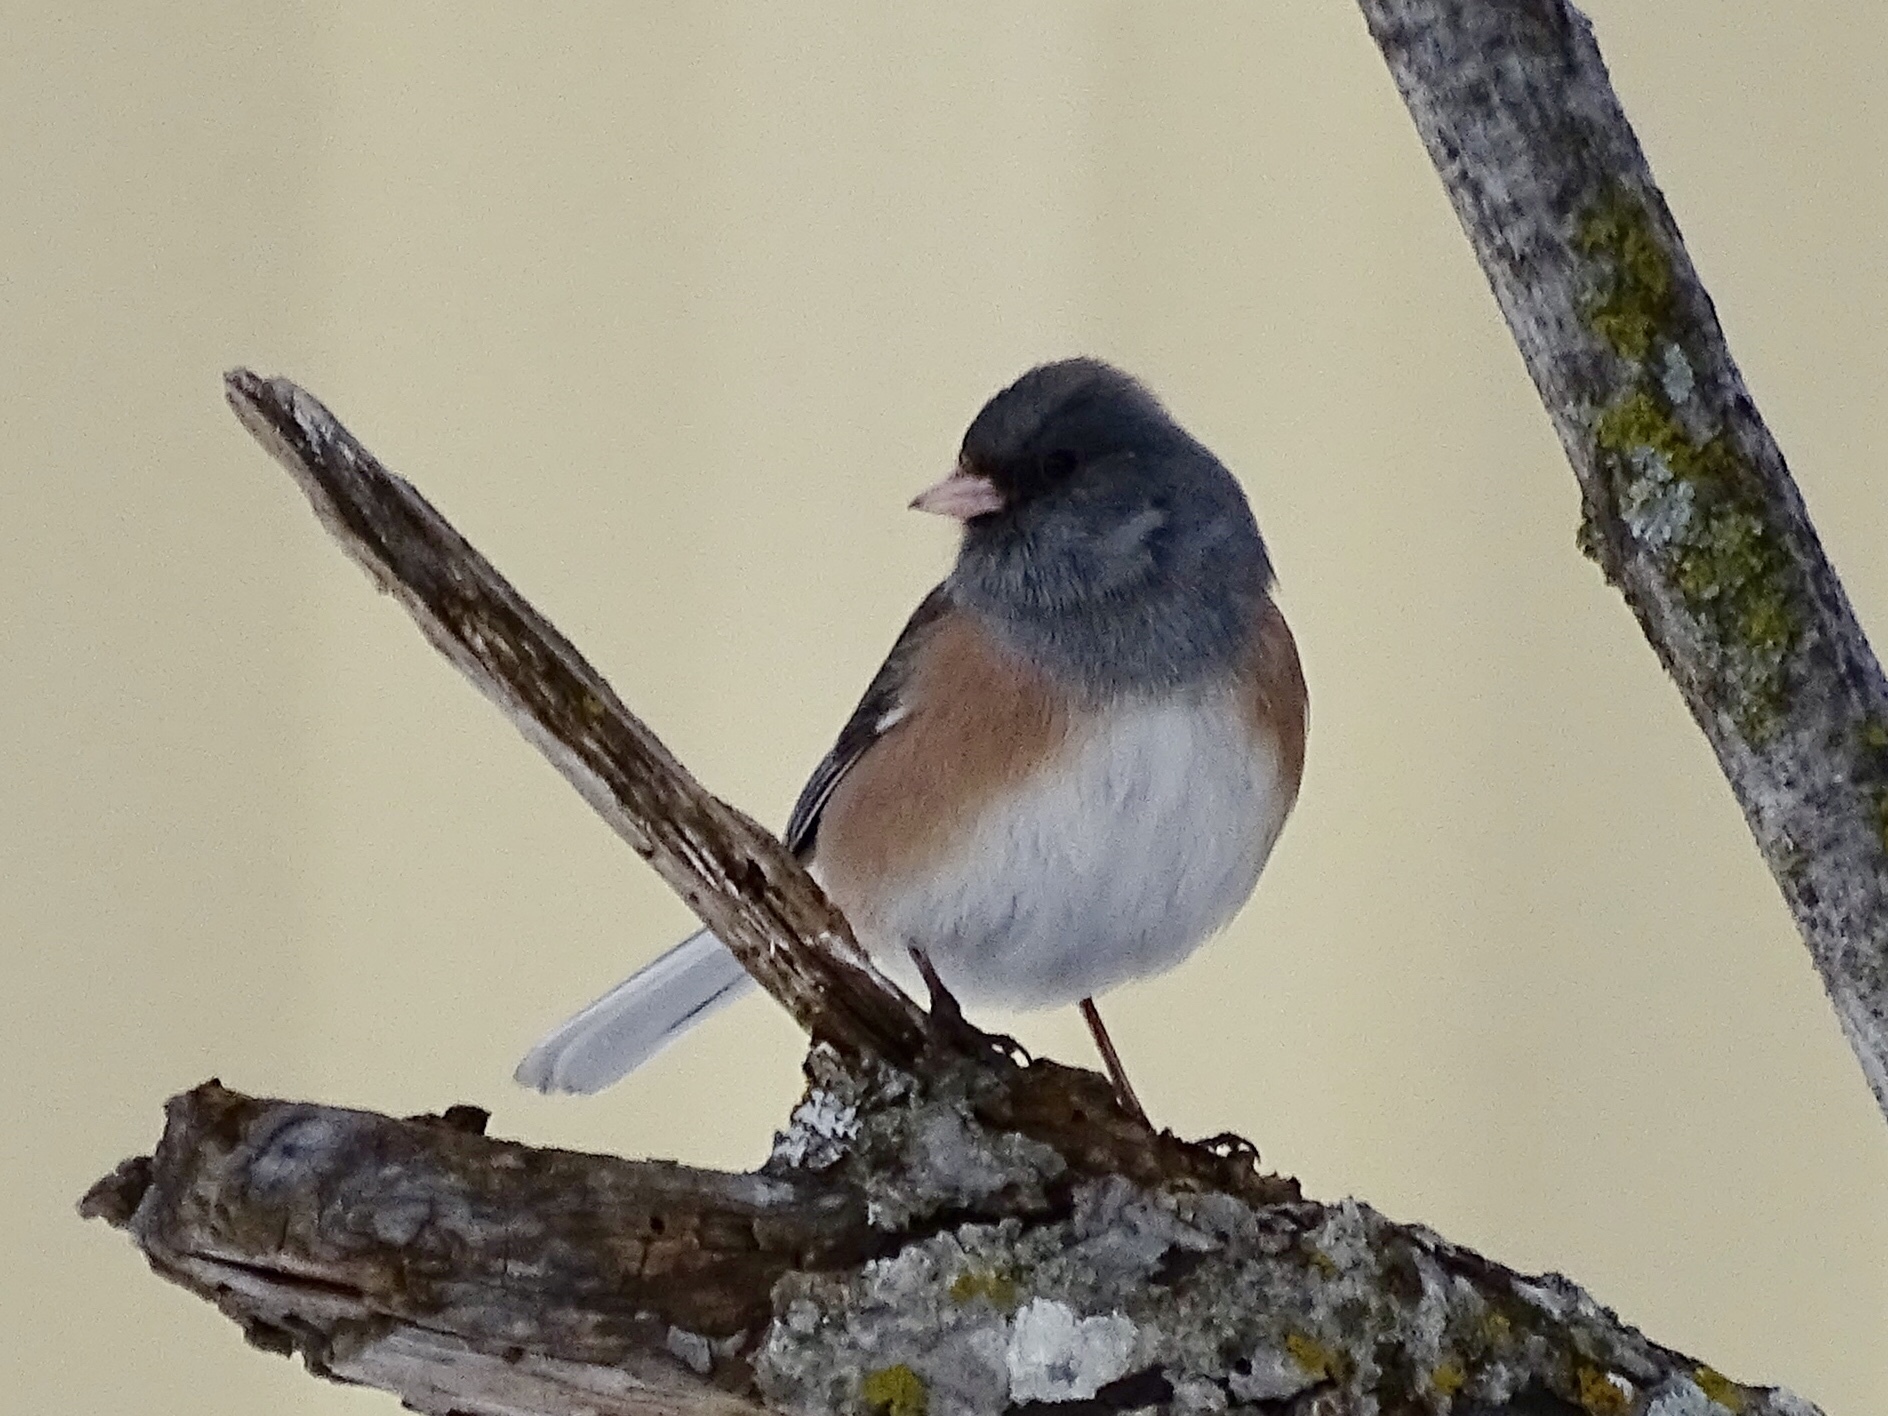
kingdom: Animalia
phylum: Chordata
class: Aves
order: Passeriformes
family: Passerellidae
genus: Junco
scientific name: Junco hyemalis
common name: Dark-eyed junco
